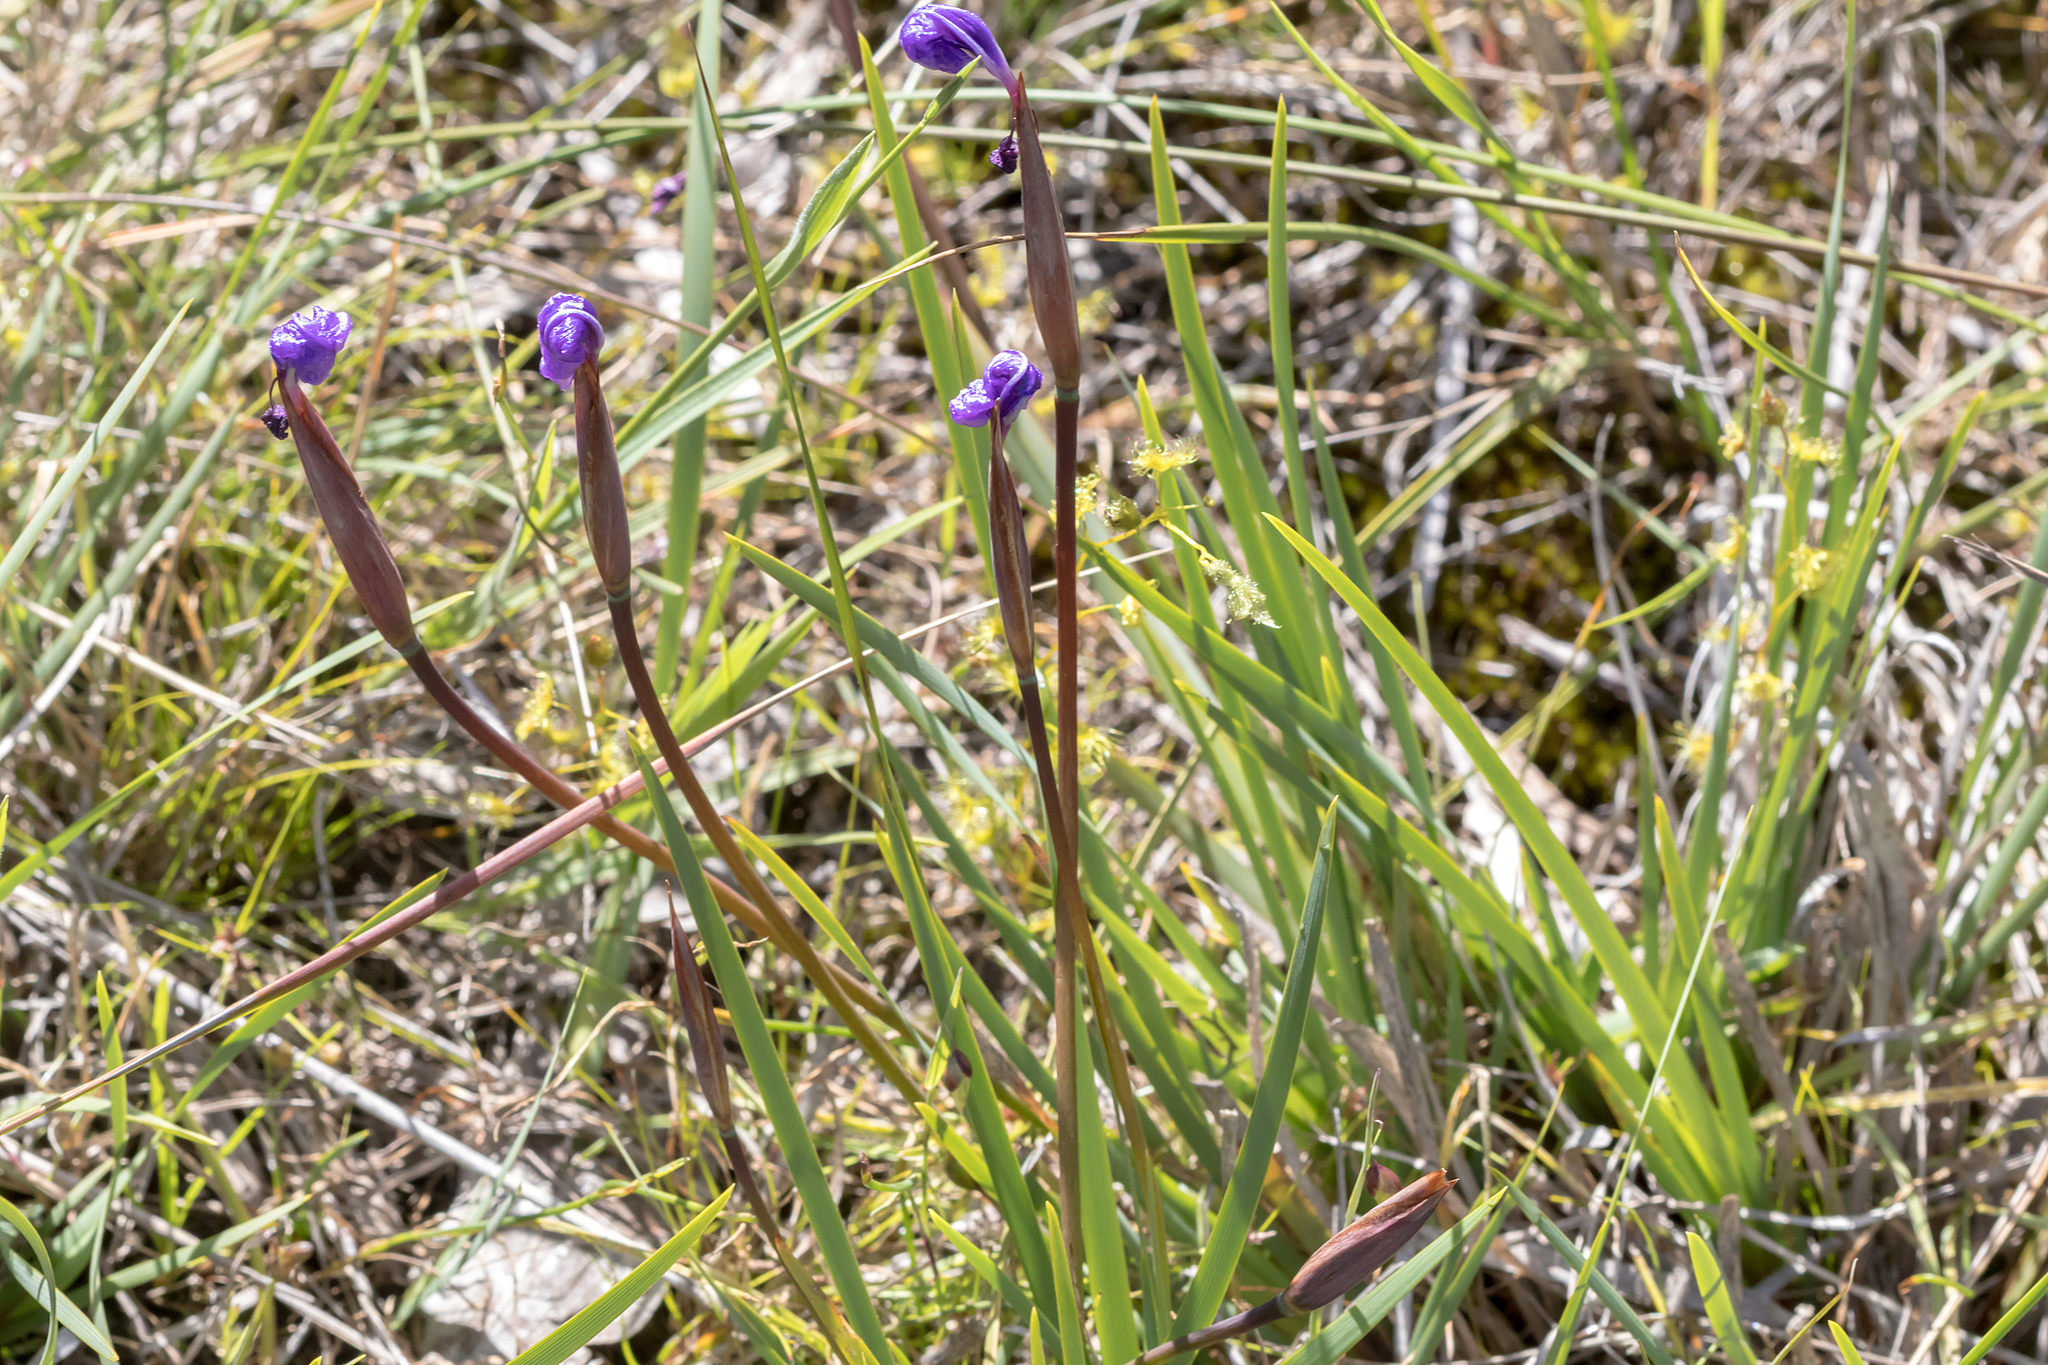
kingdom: Plantae
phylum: Tracheophyta
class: Liliopsida
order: Asparagales
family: Iridaceae
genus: Patersonia
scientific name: Patersonia occidentalis
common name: Long purple-flag
